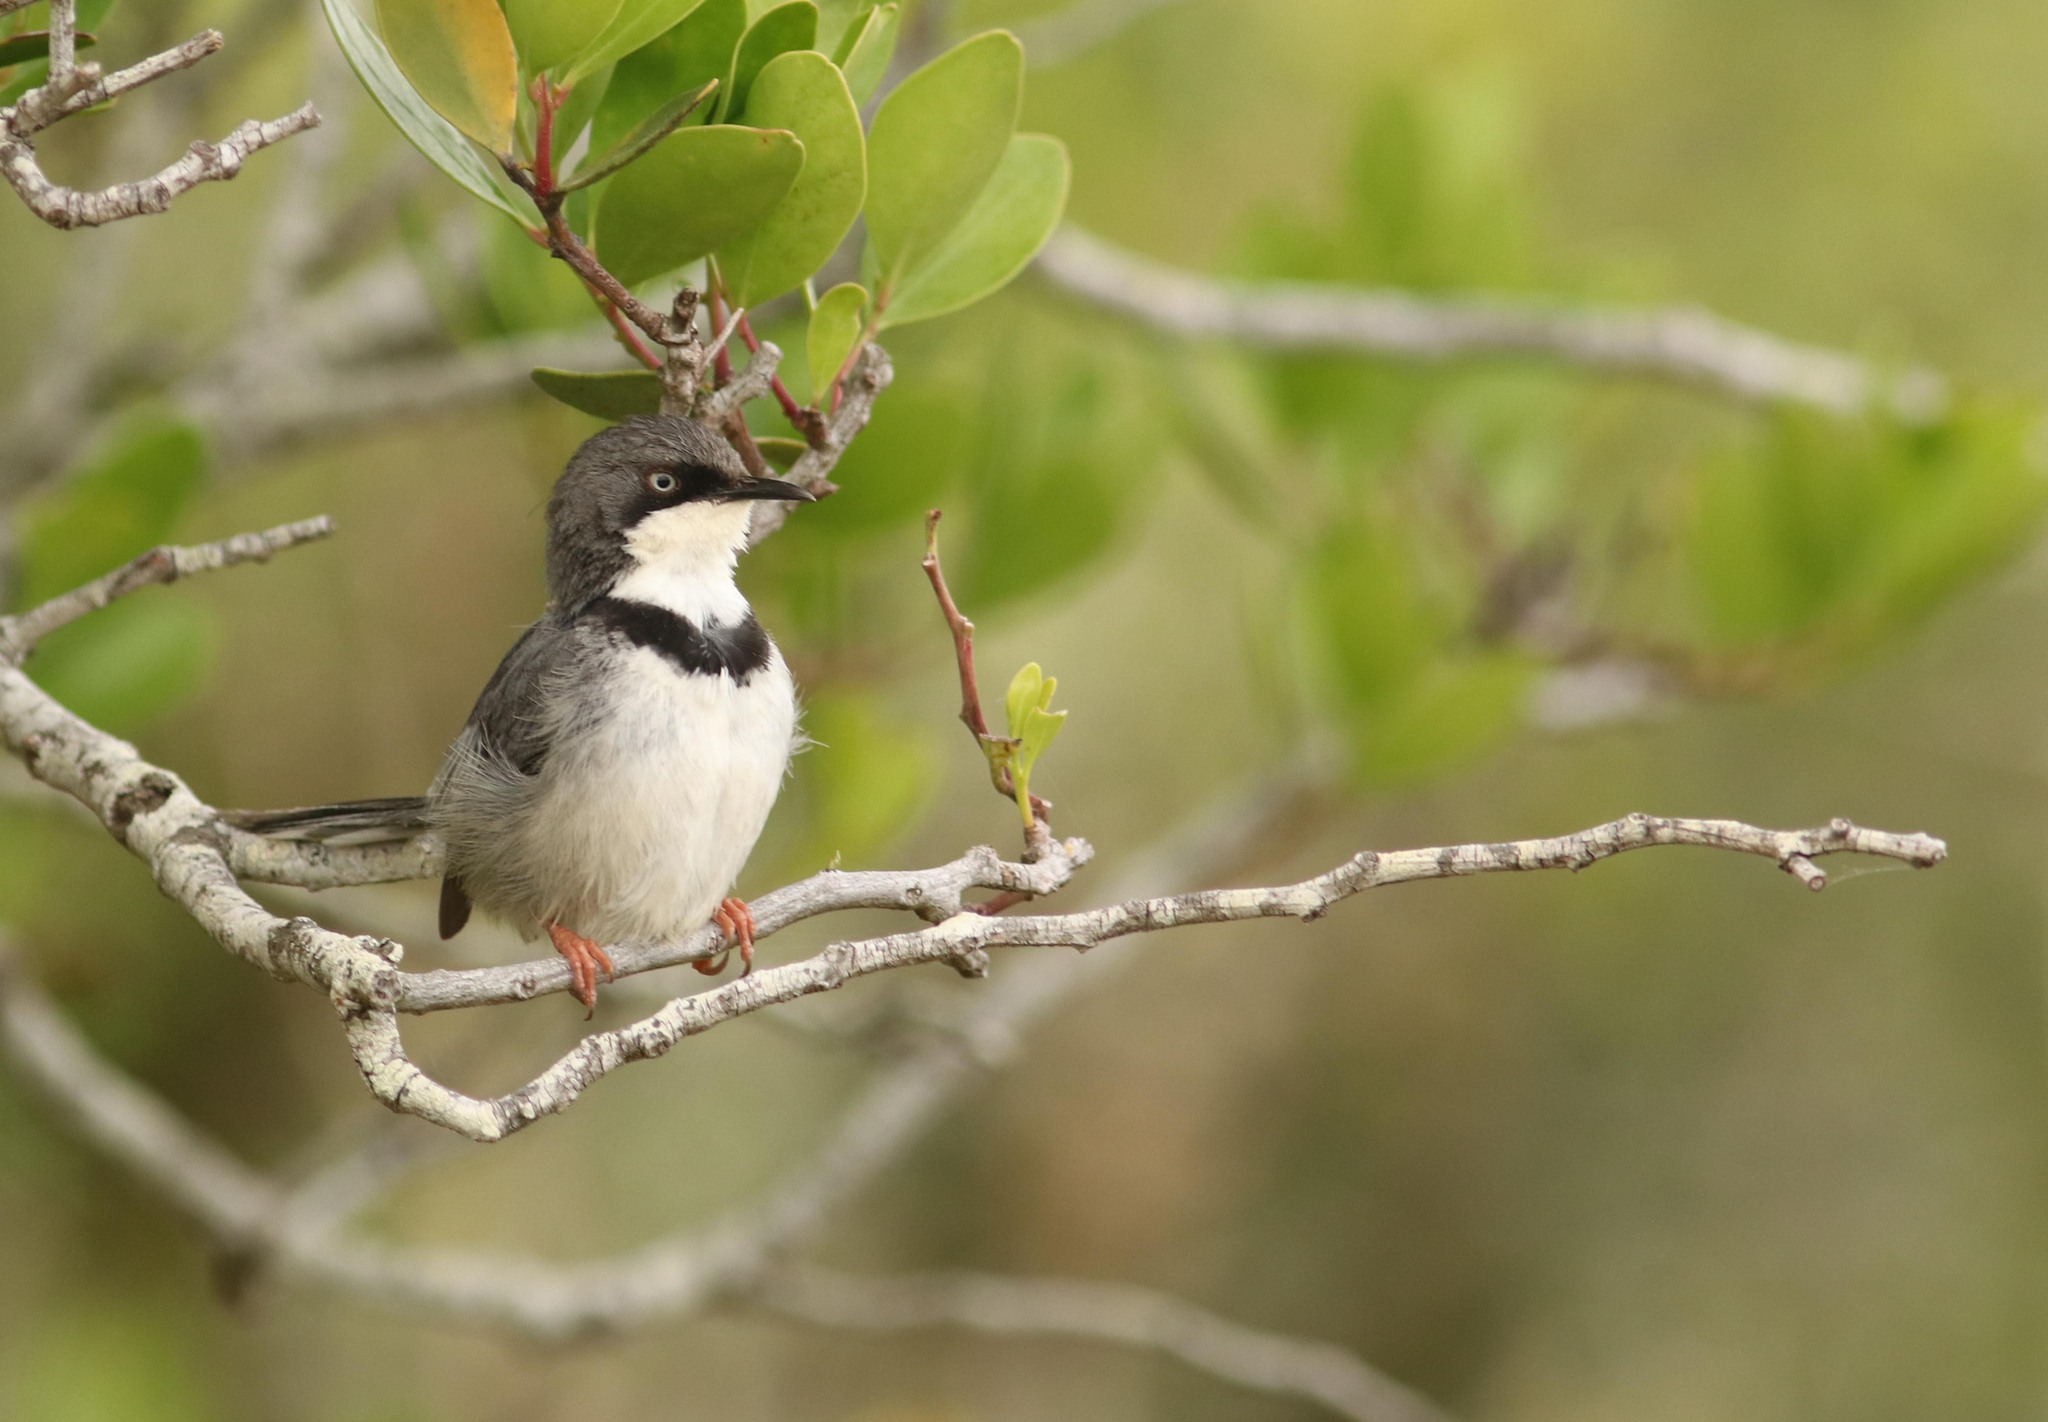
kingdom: Animalia
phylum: Chordata
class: Aves
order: Passeriformes
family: Cisticolidae
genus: Apalis
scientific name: Apalis thoracica
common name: Bar-throated apalis
